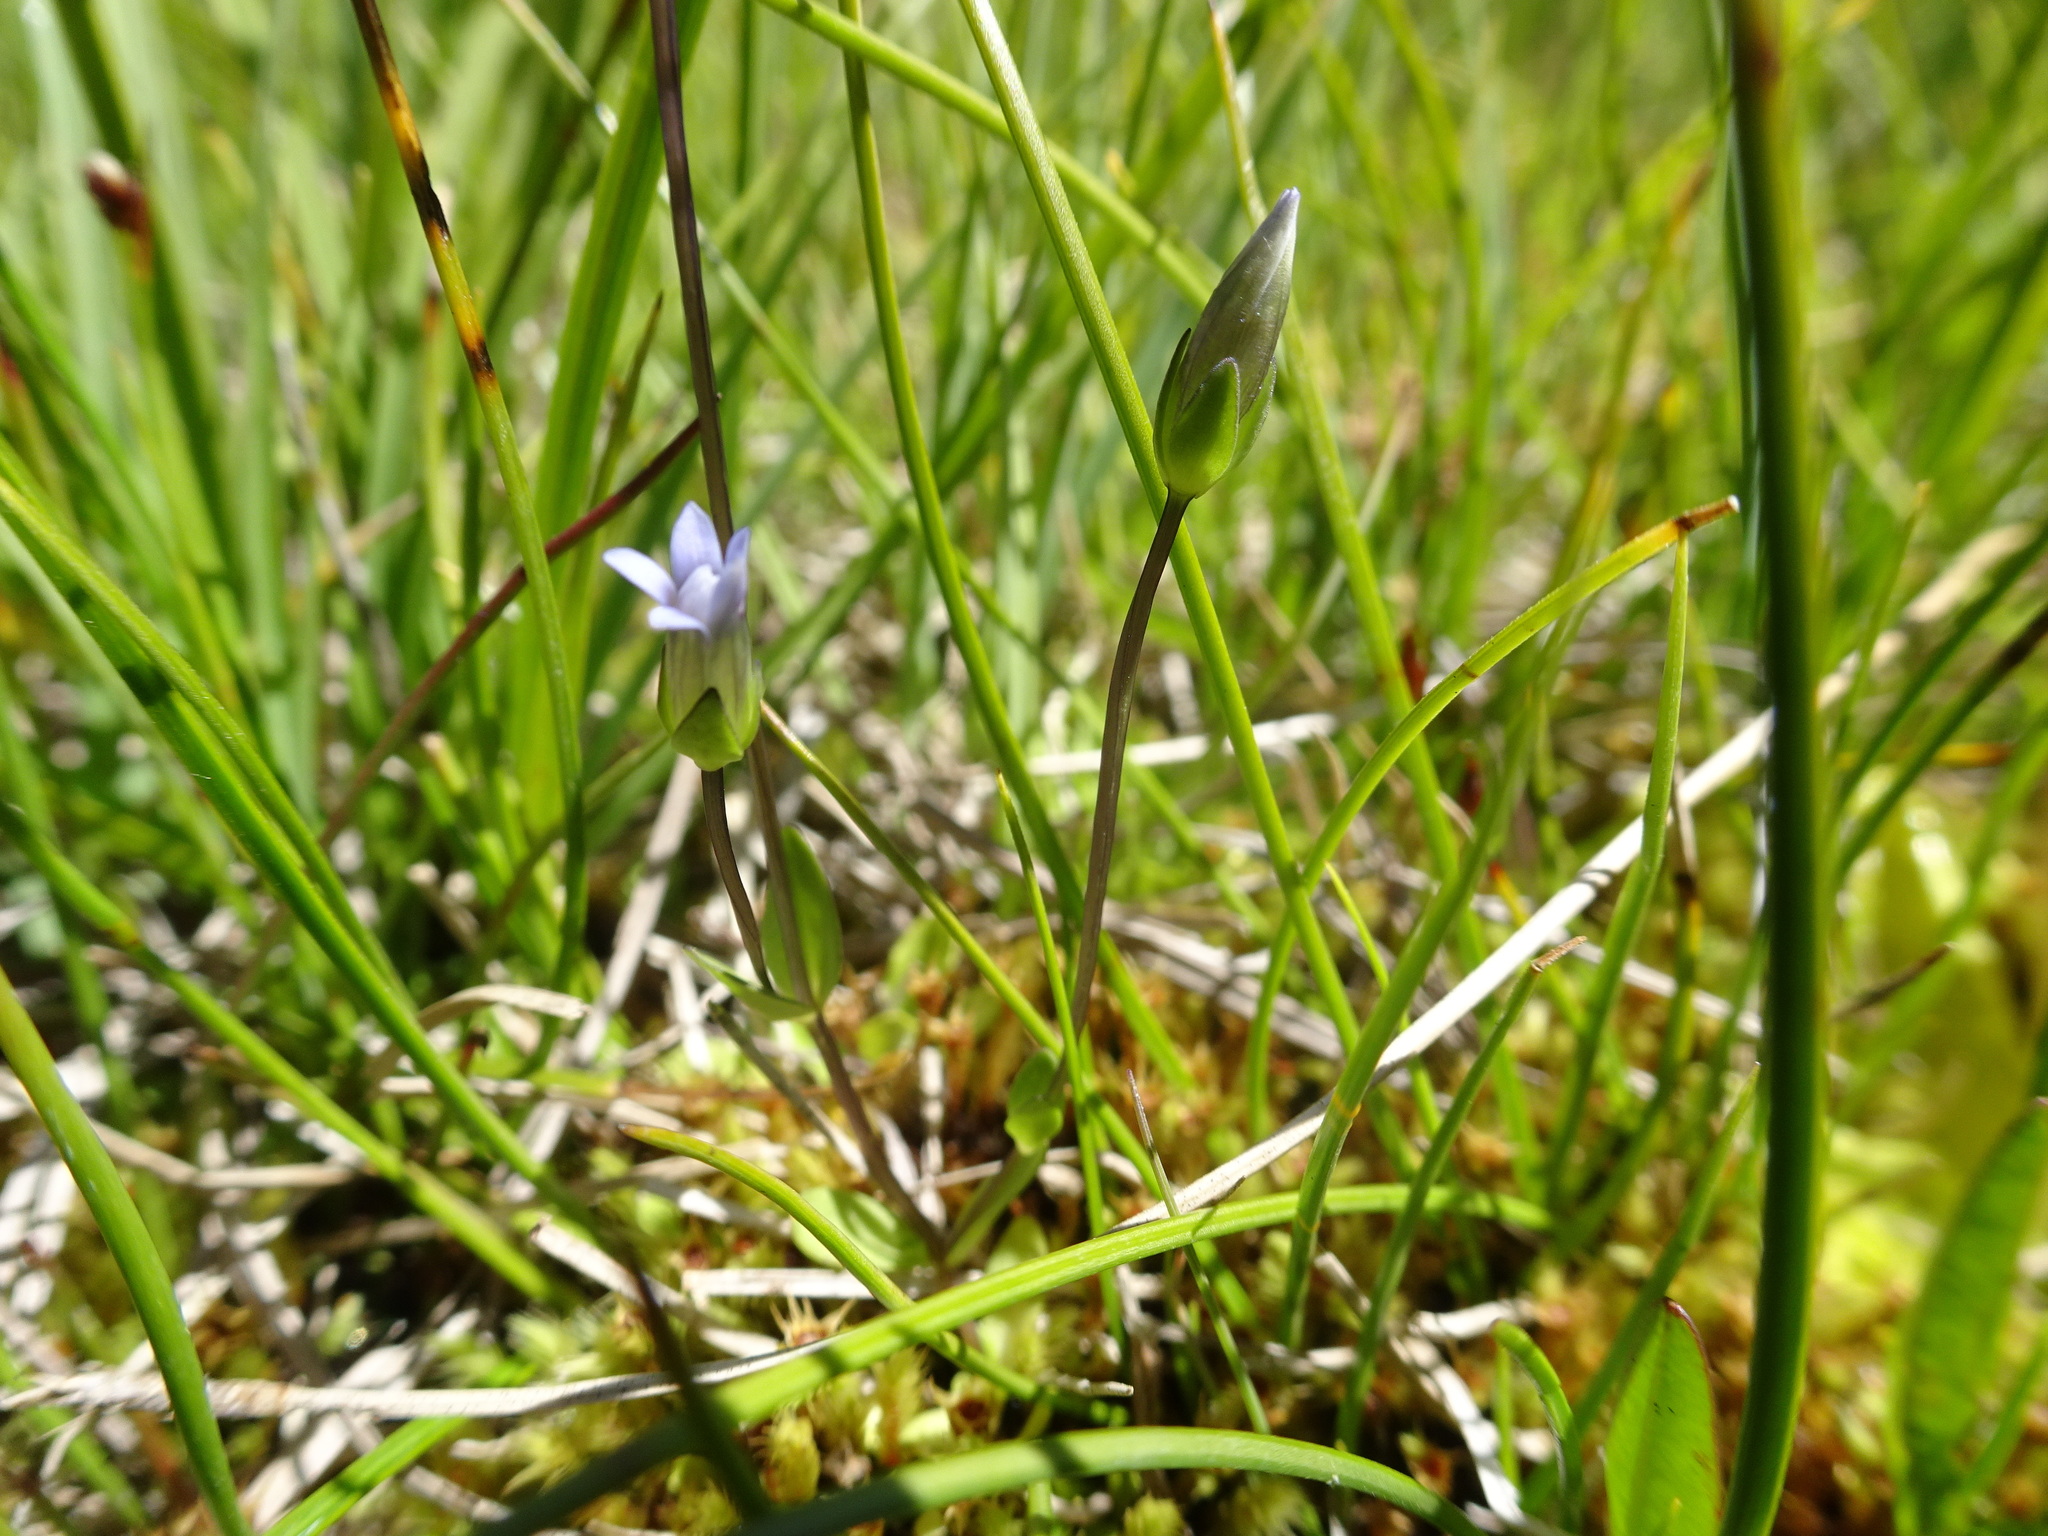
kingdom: Plantae
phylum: Tracheophyta
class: Magnoliopsida
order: Gentianales
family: Gentianaceae
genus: Comastoma
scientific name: Comastoma tenellum
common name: Dane's dwarf gentian
